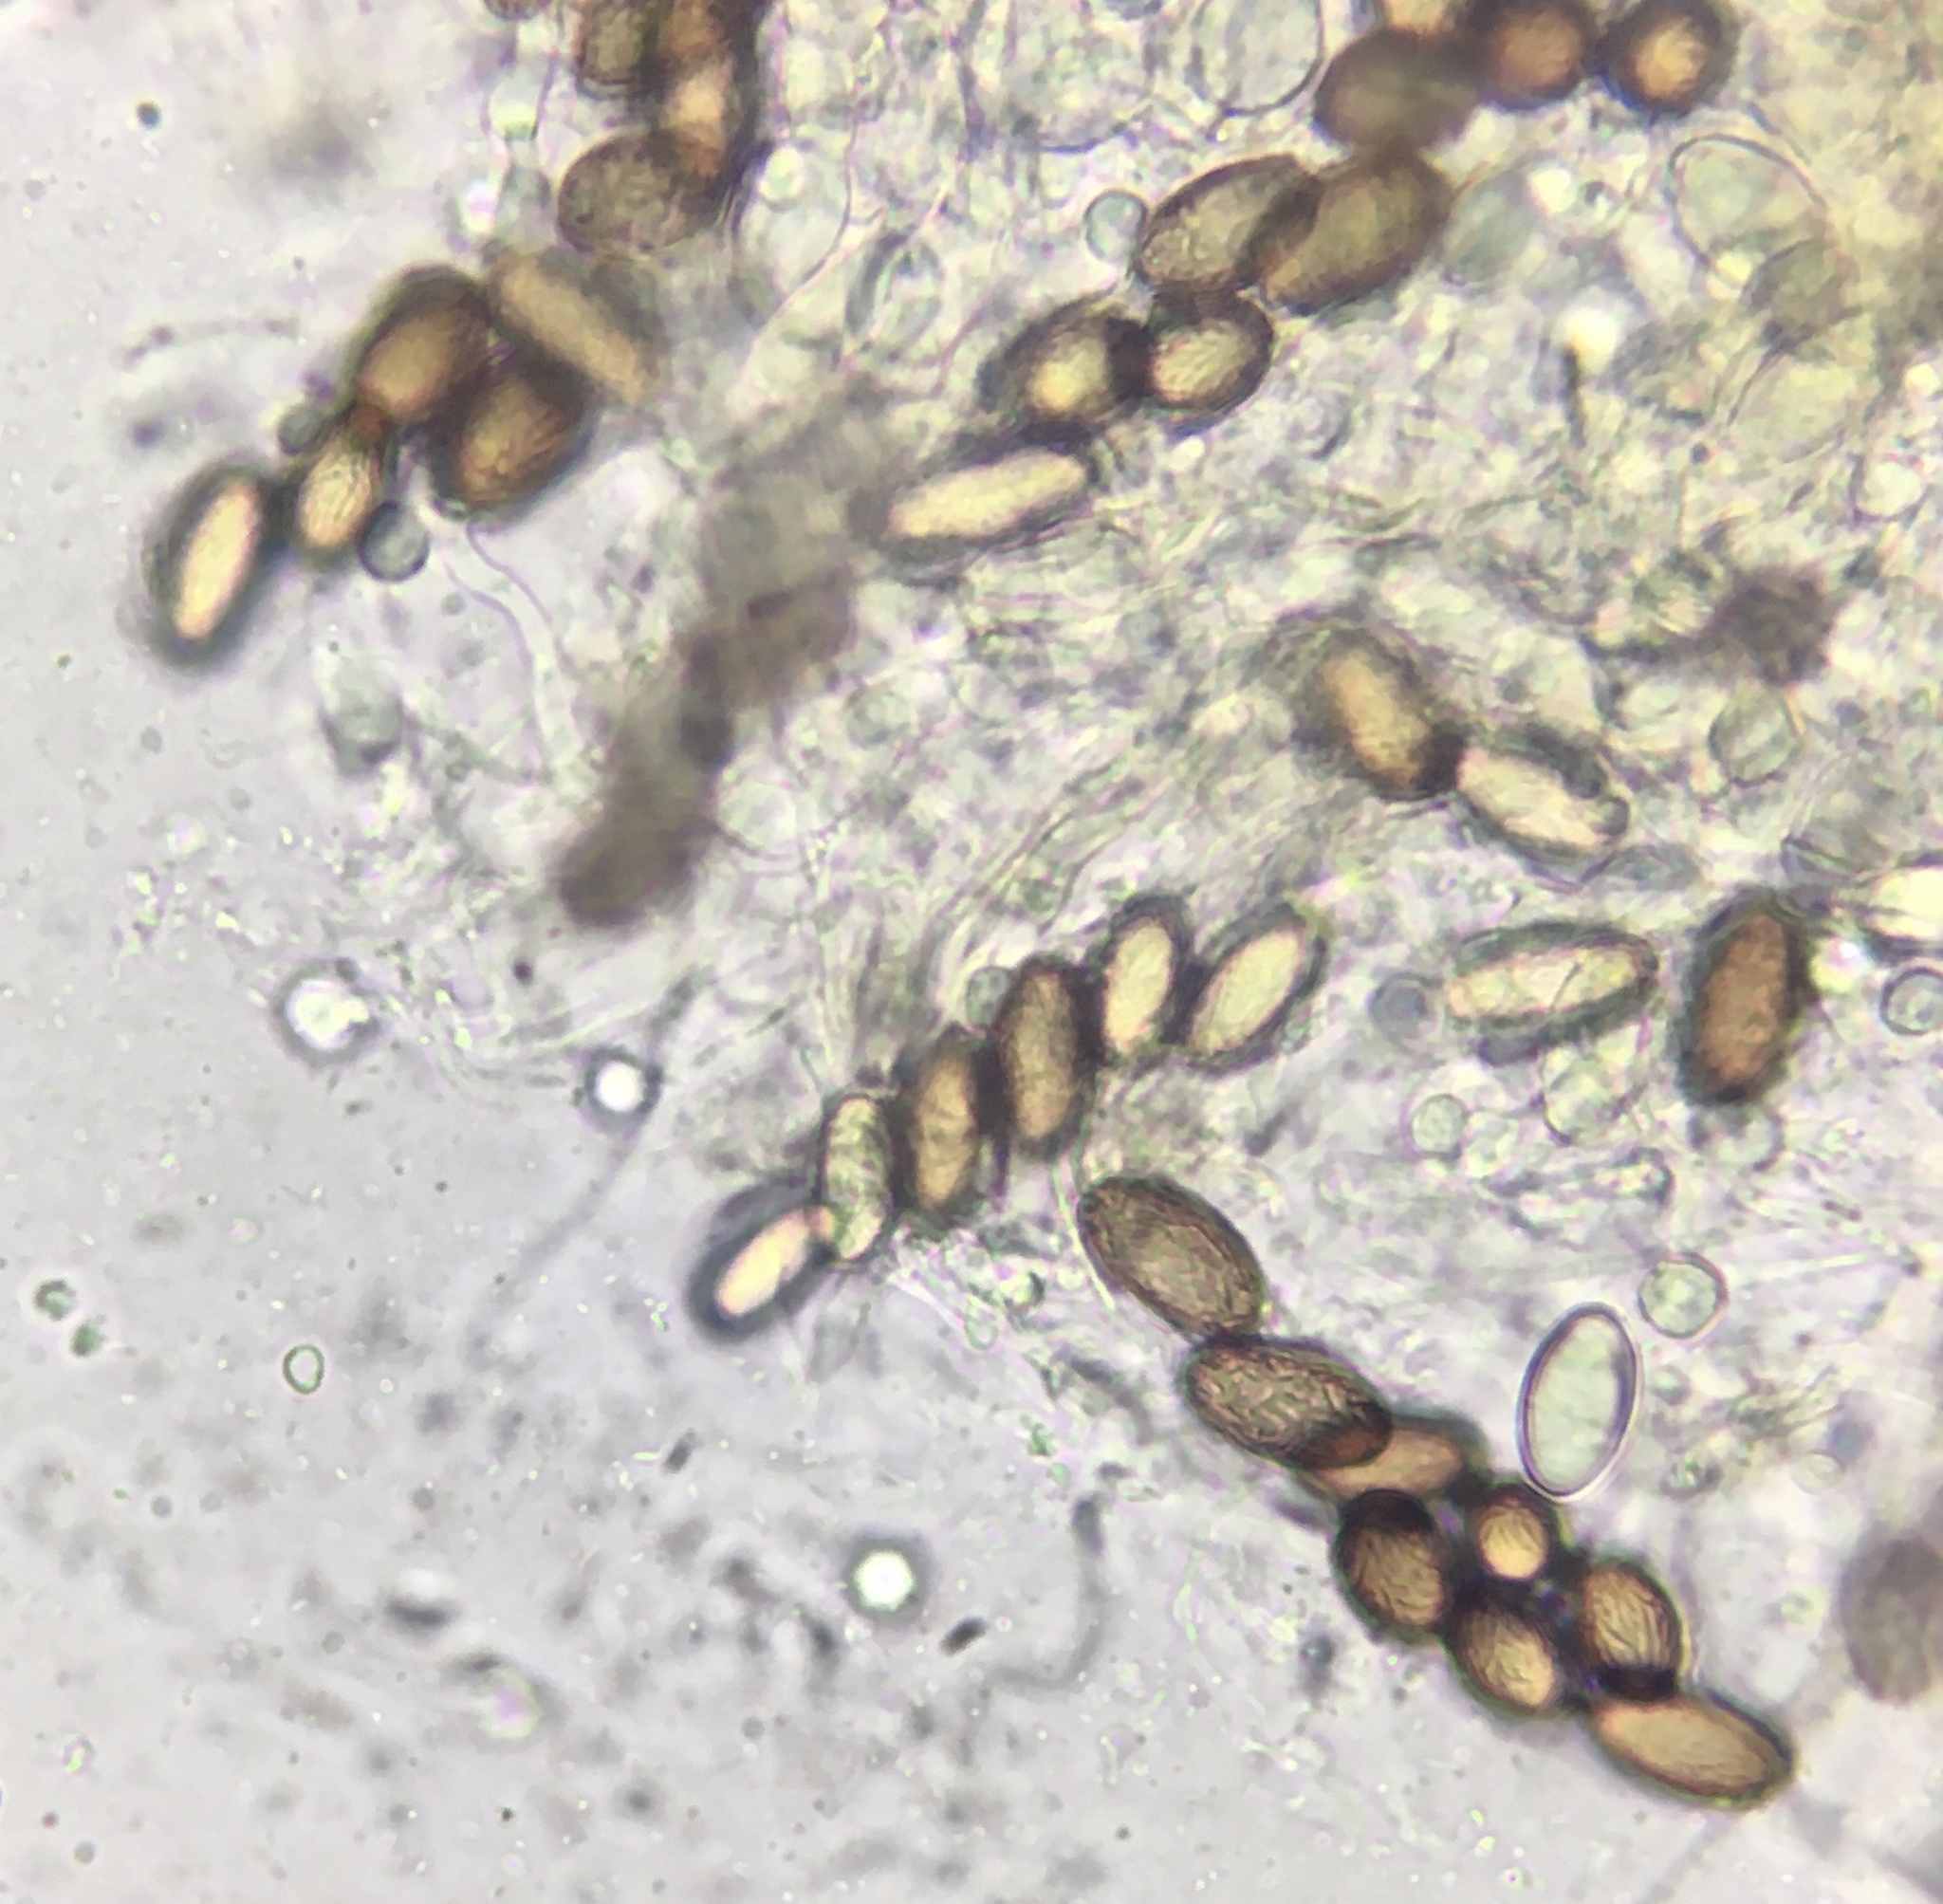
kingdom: Fungi
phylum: Ascomycota
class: Pezizomycetes
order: Pezizales
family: Ascobolaceae
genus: Ascobolus
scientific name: Ascobolus albidus
